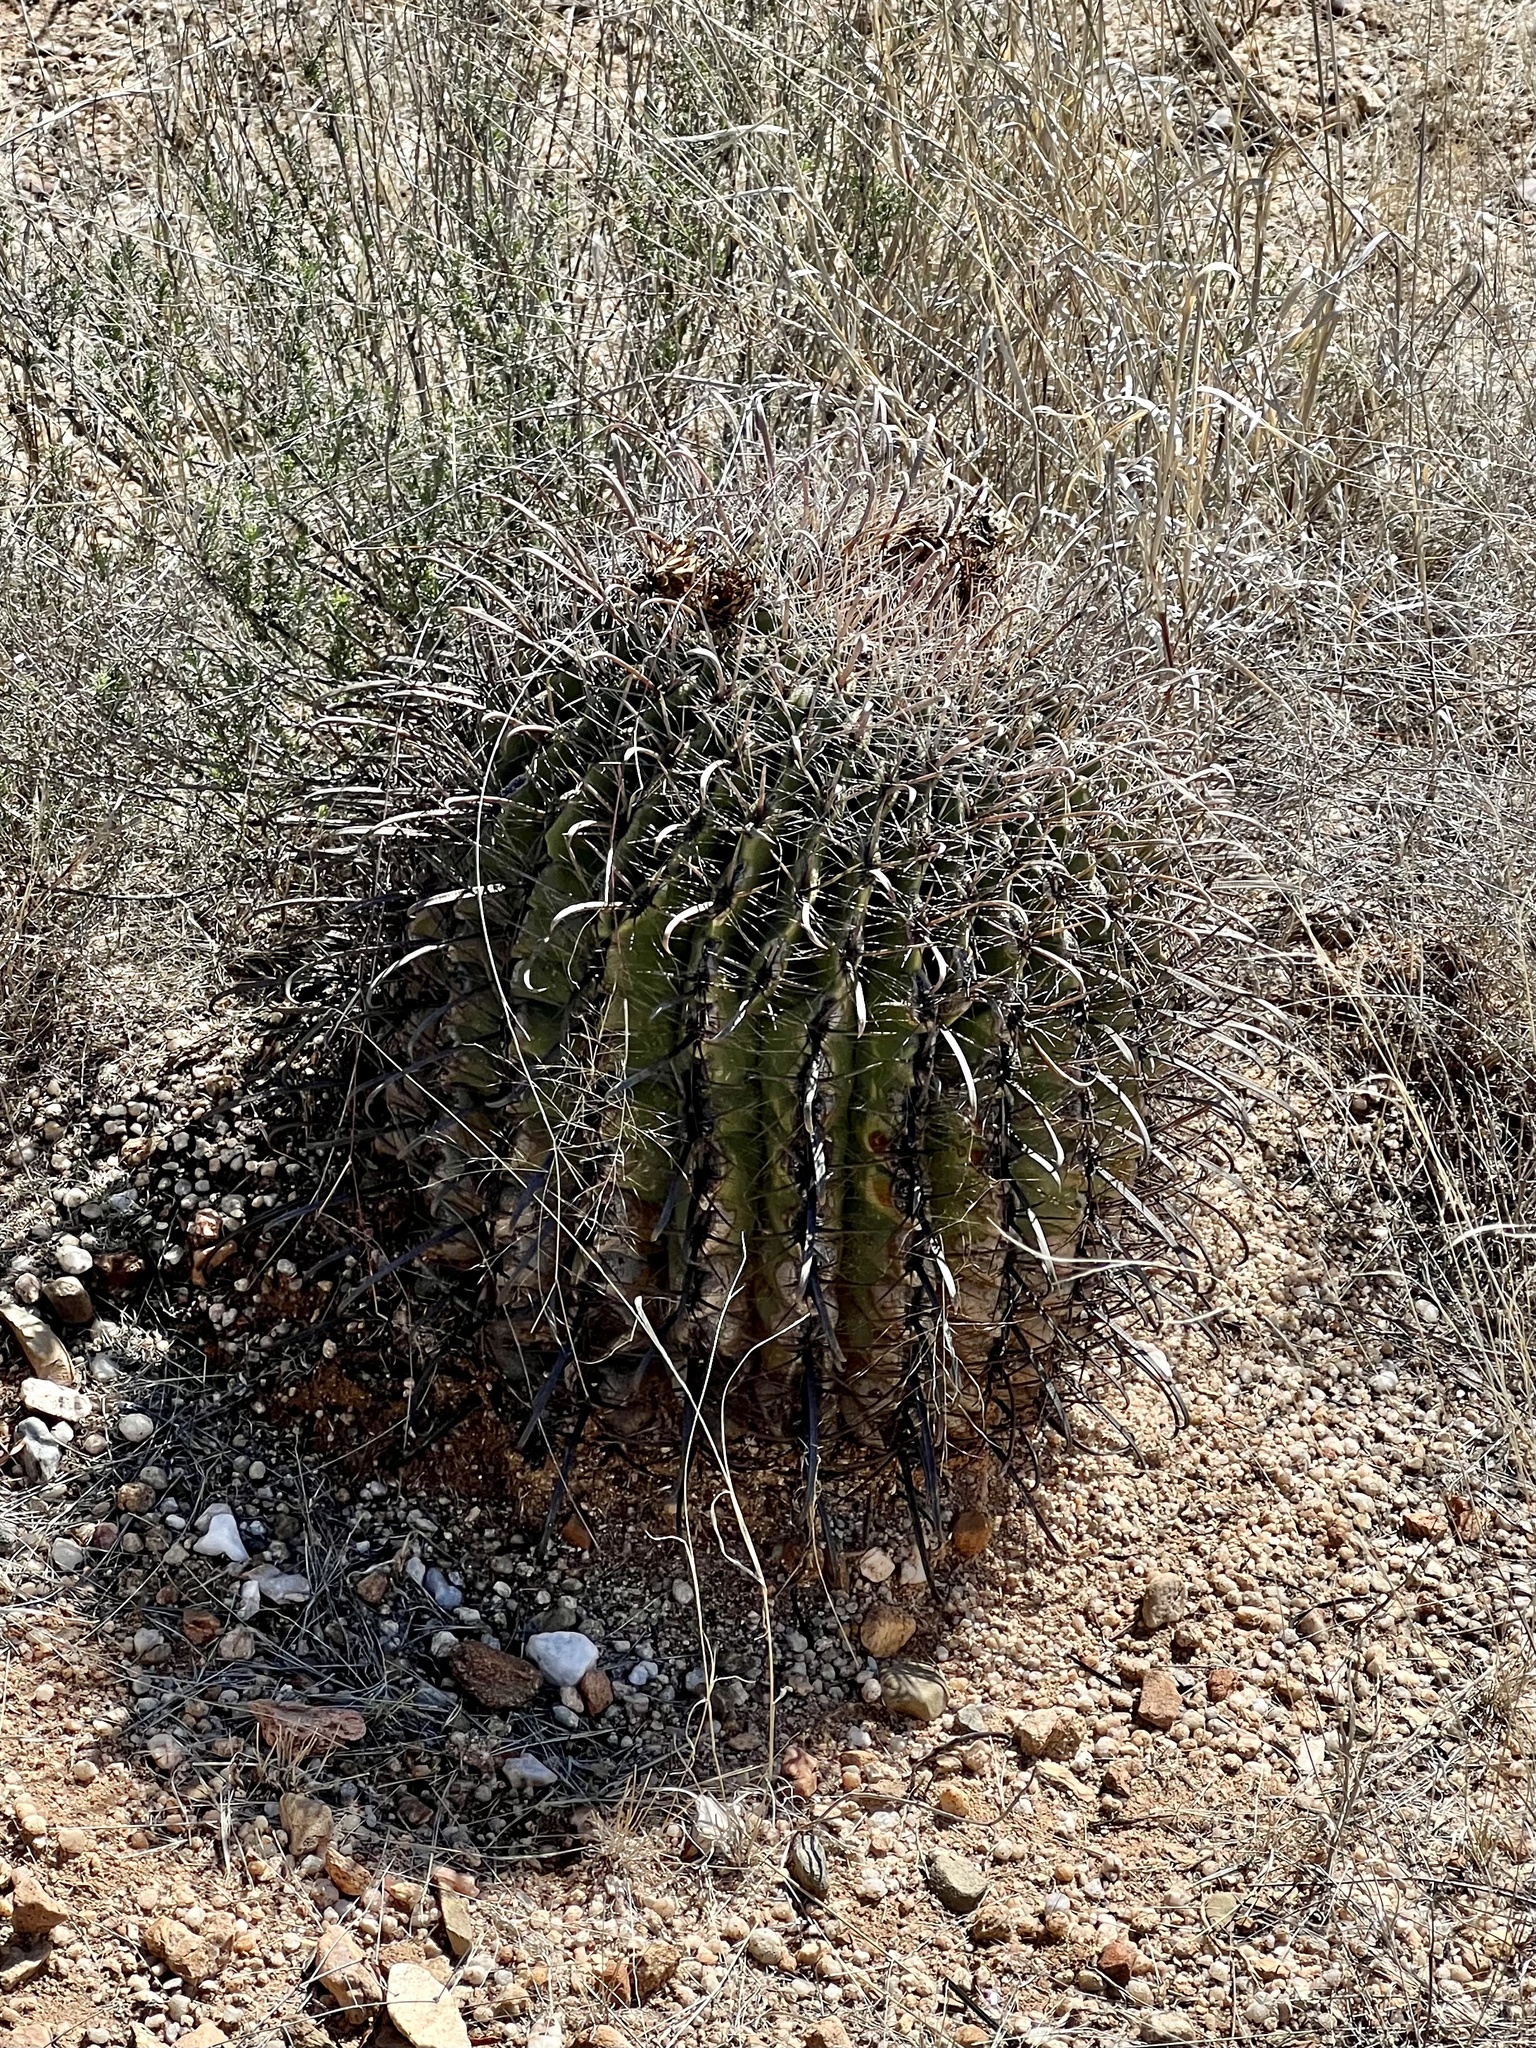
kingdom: Plantae
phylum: Tracheophyta
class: Magnoliopsida
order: Caryophyllales
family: Cactaceae
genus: Ferocactus
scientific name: Ferocactus wislizeni
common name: Candy barrel cactus
